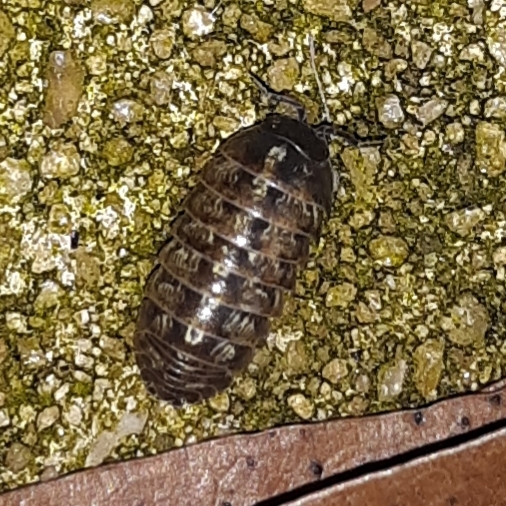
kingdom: Animalia
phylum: Arthropoda
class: Malacostraca
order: Isopoda
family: Armadillidiidae
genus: Armadillidium
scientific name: Armadillidium vulgare
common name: Common pill woodlouse
